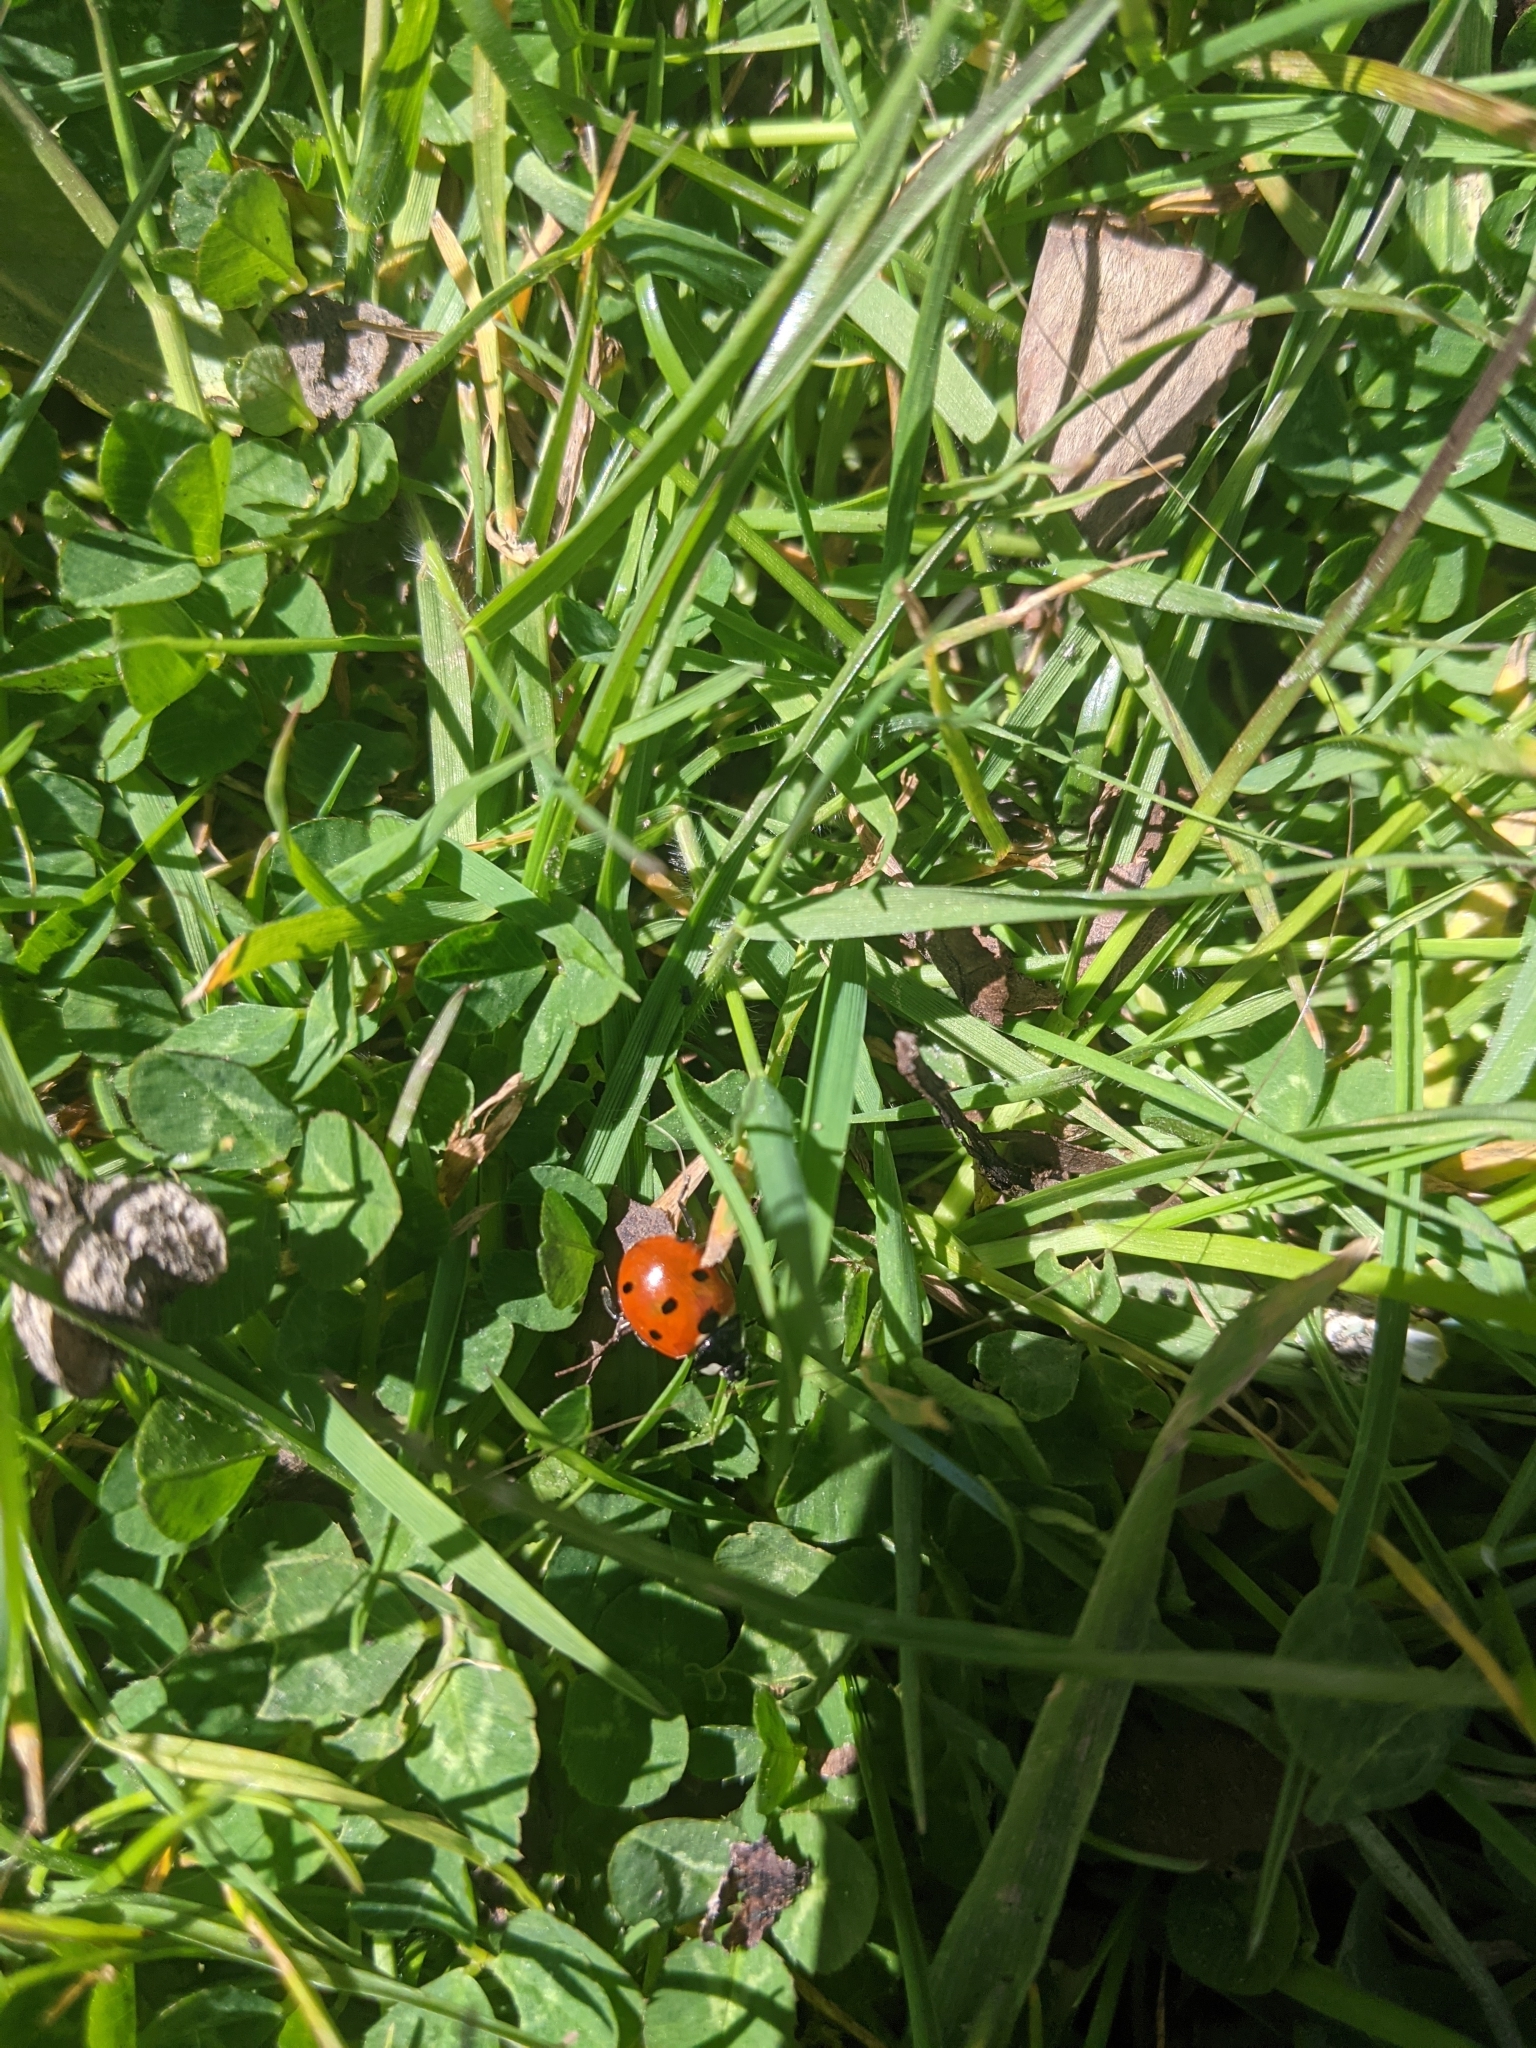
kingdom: Animalia
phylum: Arthropoda
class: Insecta
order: Coleoptera
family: Coccinellidae
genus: Coccinella
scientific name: Coccinella septempunctata
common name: Sevenspotted lady beetle
